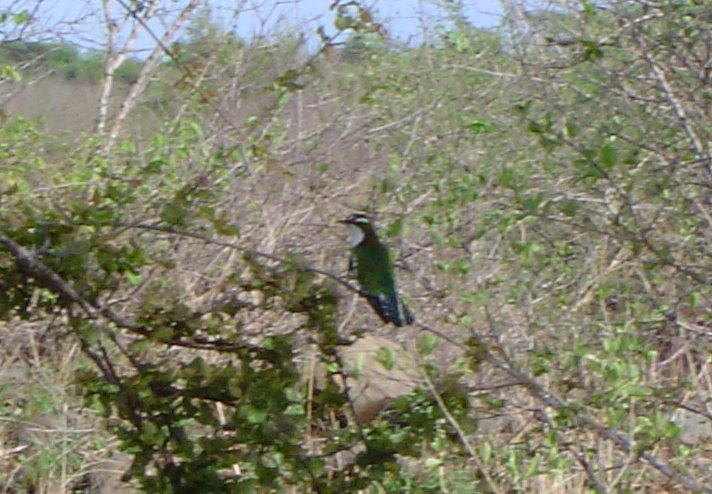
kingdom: Animalia
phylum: Chordata
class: Aves
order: Cuculiformes
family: Cuculidae
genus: Chrysococcyx
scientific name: Chrysococcyx caprius
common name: Diederik cuckoo
